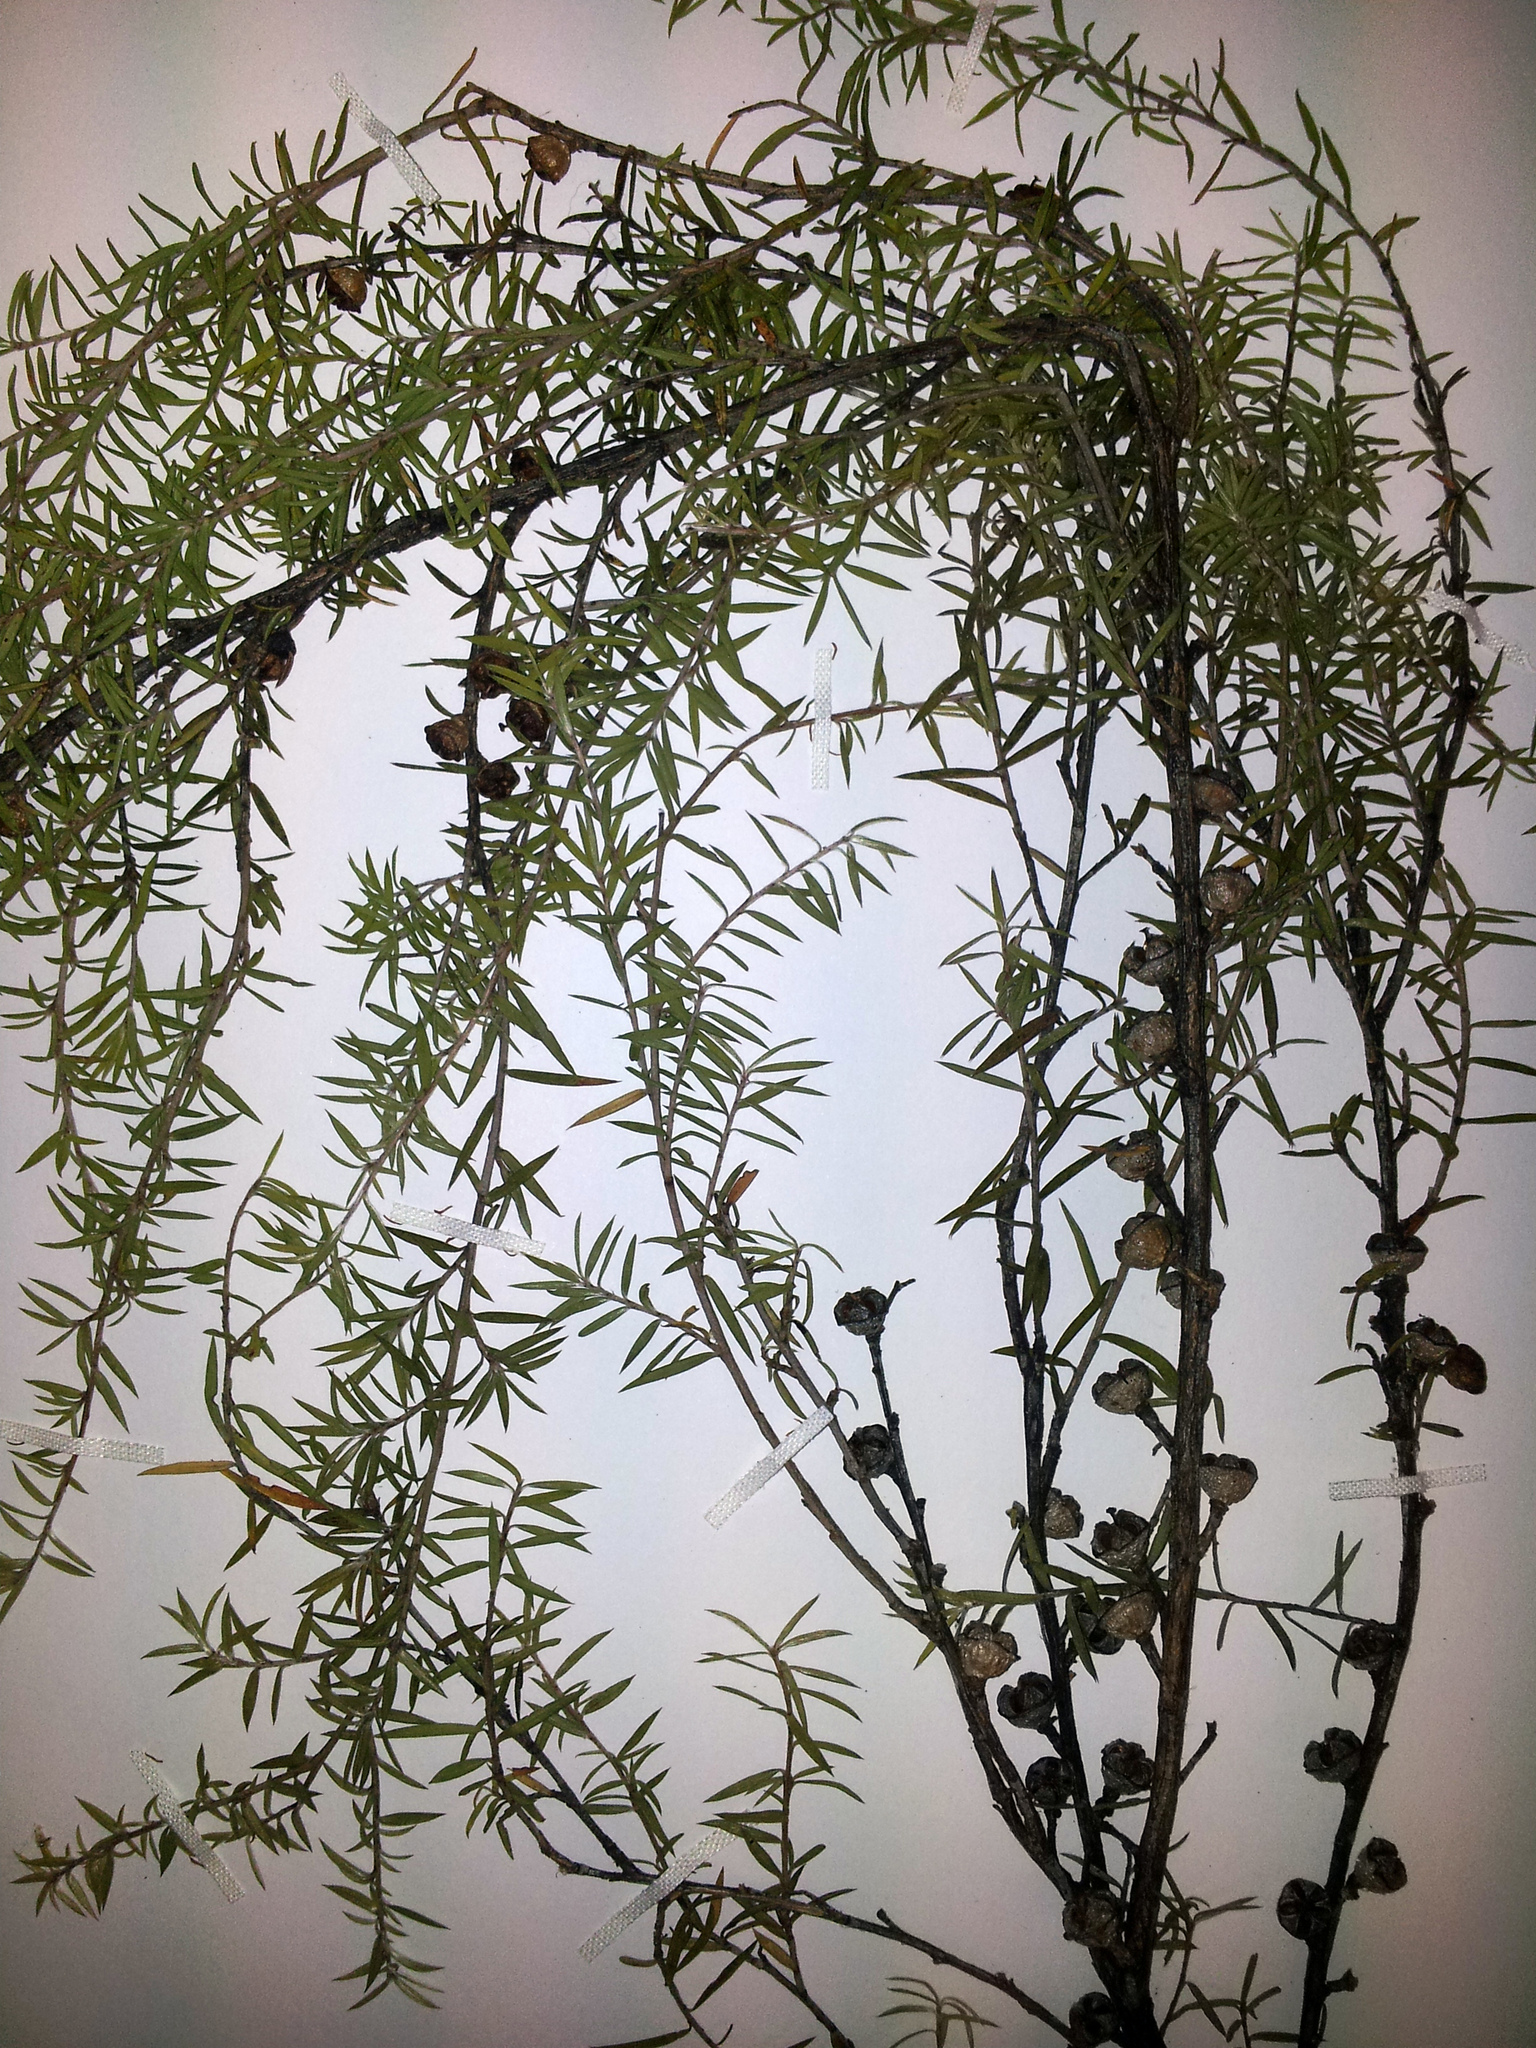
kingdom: Plantae
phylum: Tracheophyta
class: Magnoliopsida
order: Myrtales
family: Myrtaceae
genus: Leptospermum
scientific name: Leptospermum scoparium
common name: Broom tea-tree
